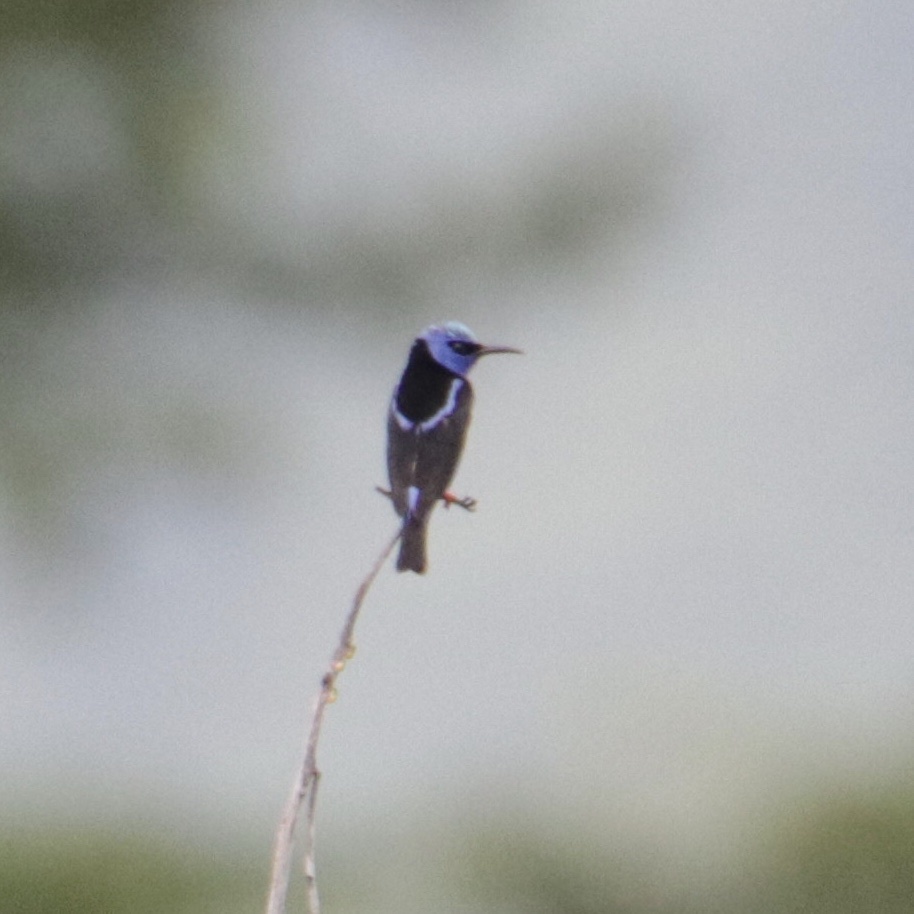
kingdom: Animalia
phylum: Chordata
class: Aves
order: Passeriformes
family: Thraupidae
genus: Cyanerpes
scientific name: Cyanerpes cyaneus
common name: Red-legged honeycreeper
